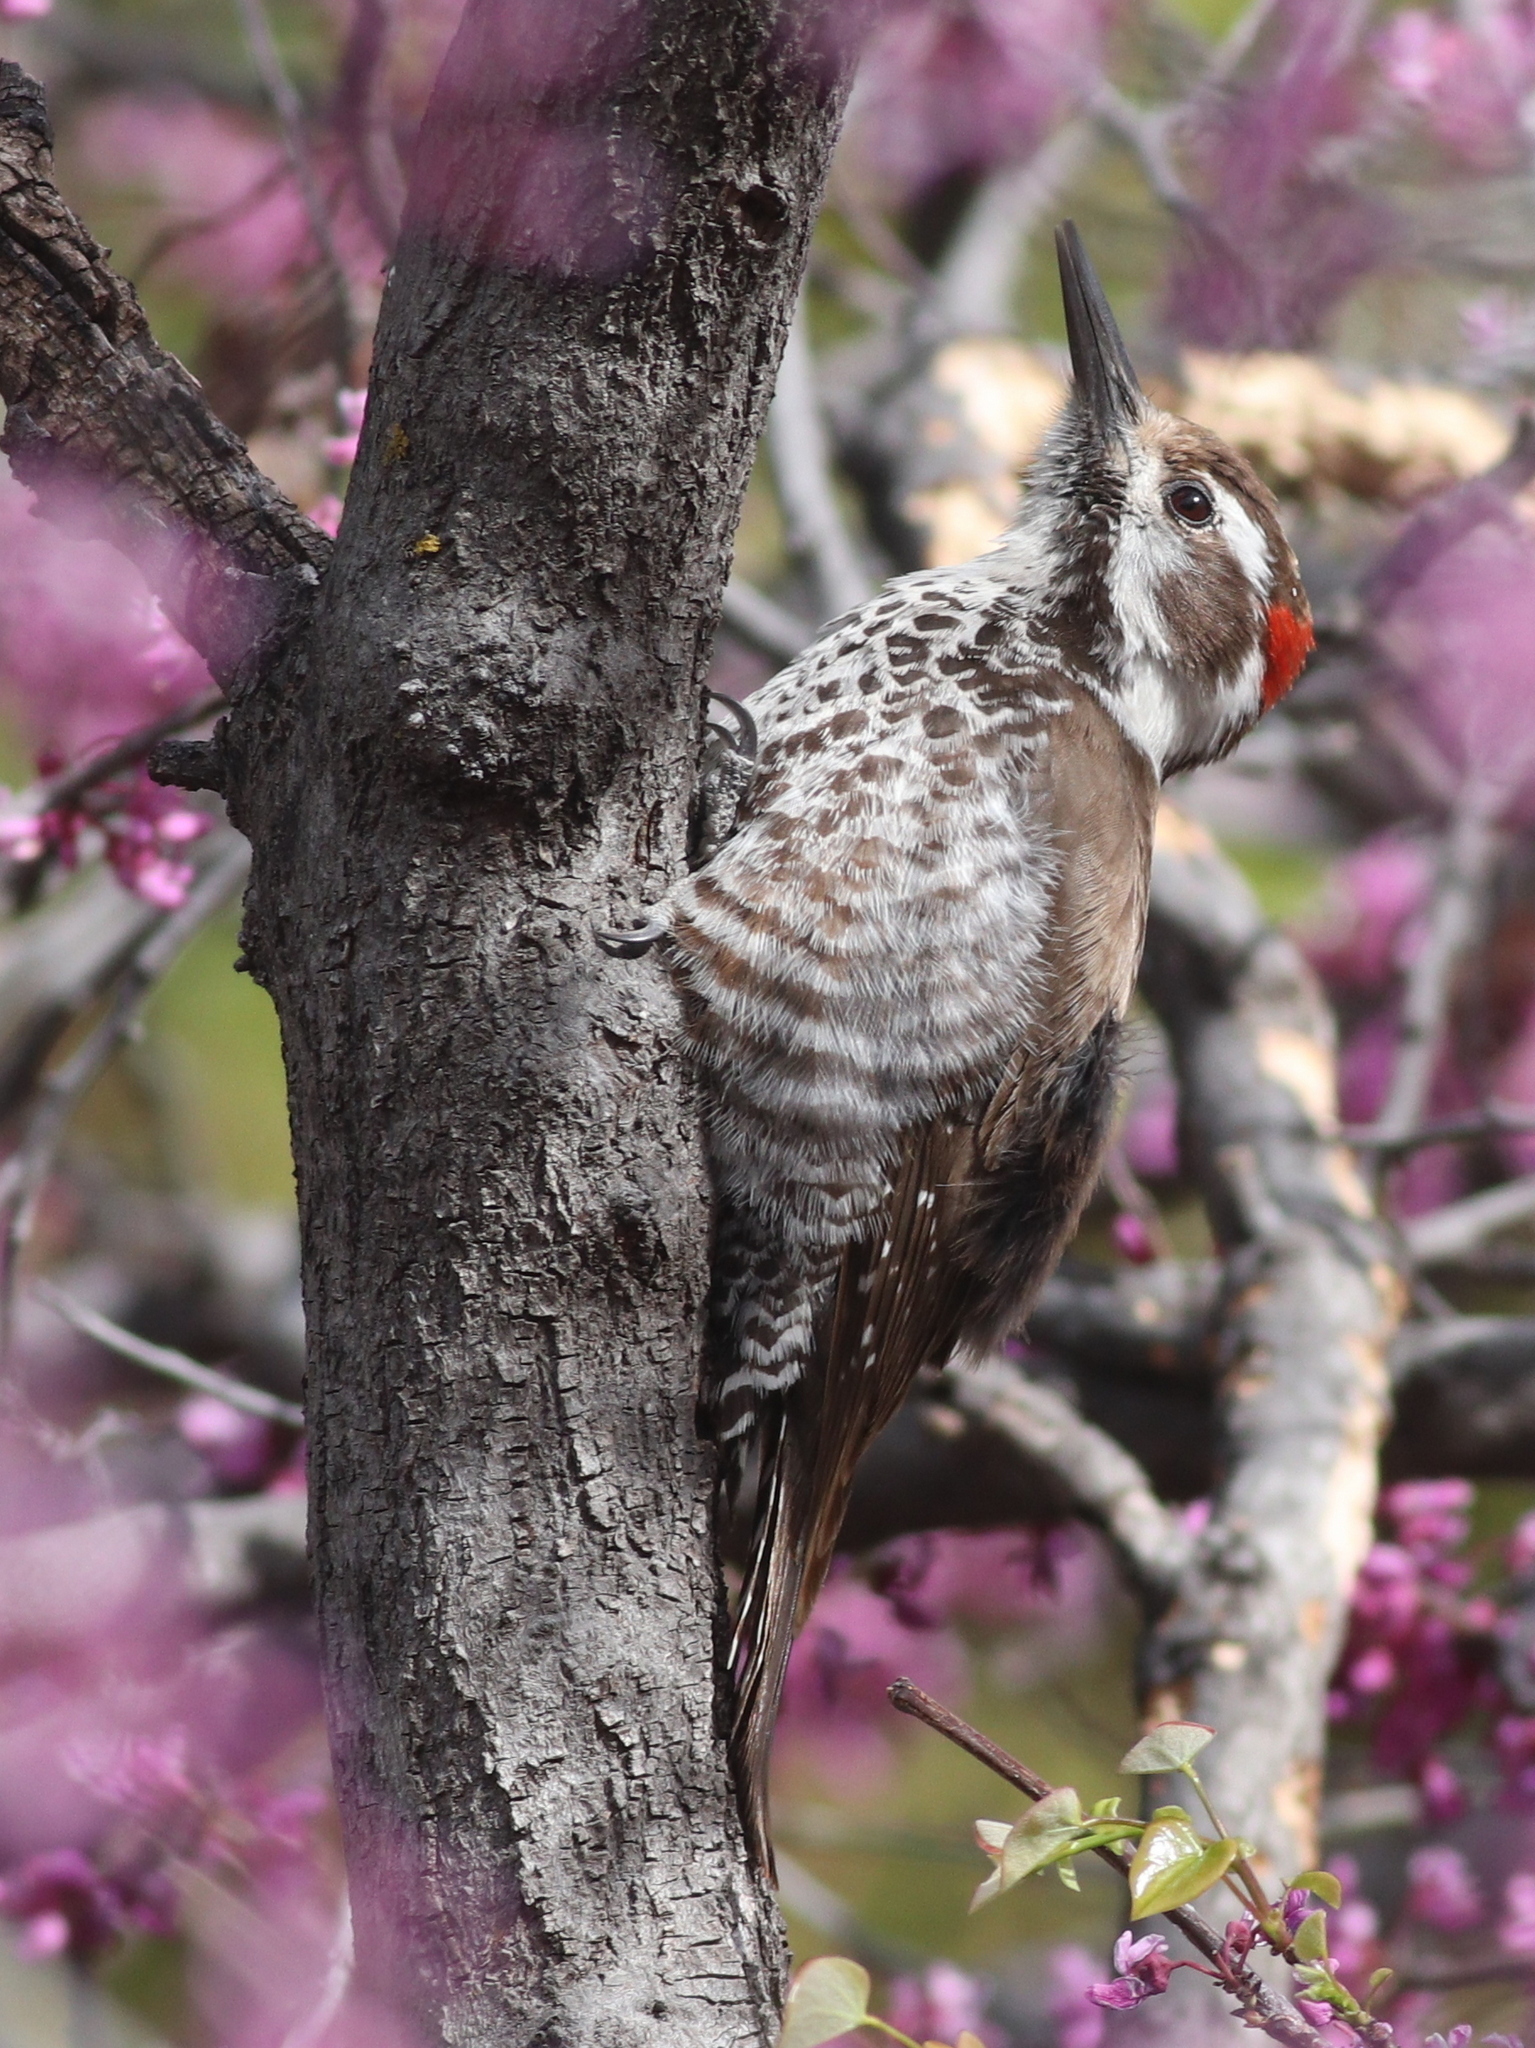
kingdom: Animalia
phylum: Chordata
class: Aves
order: Piciformes
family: Picidae
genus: Leuconotopicus
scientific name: Leuconotopicus arizonae
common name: Arizona woodpecker
